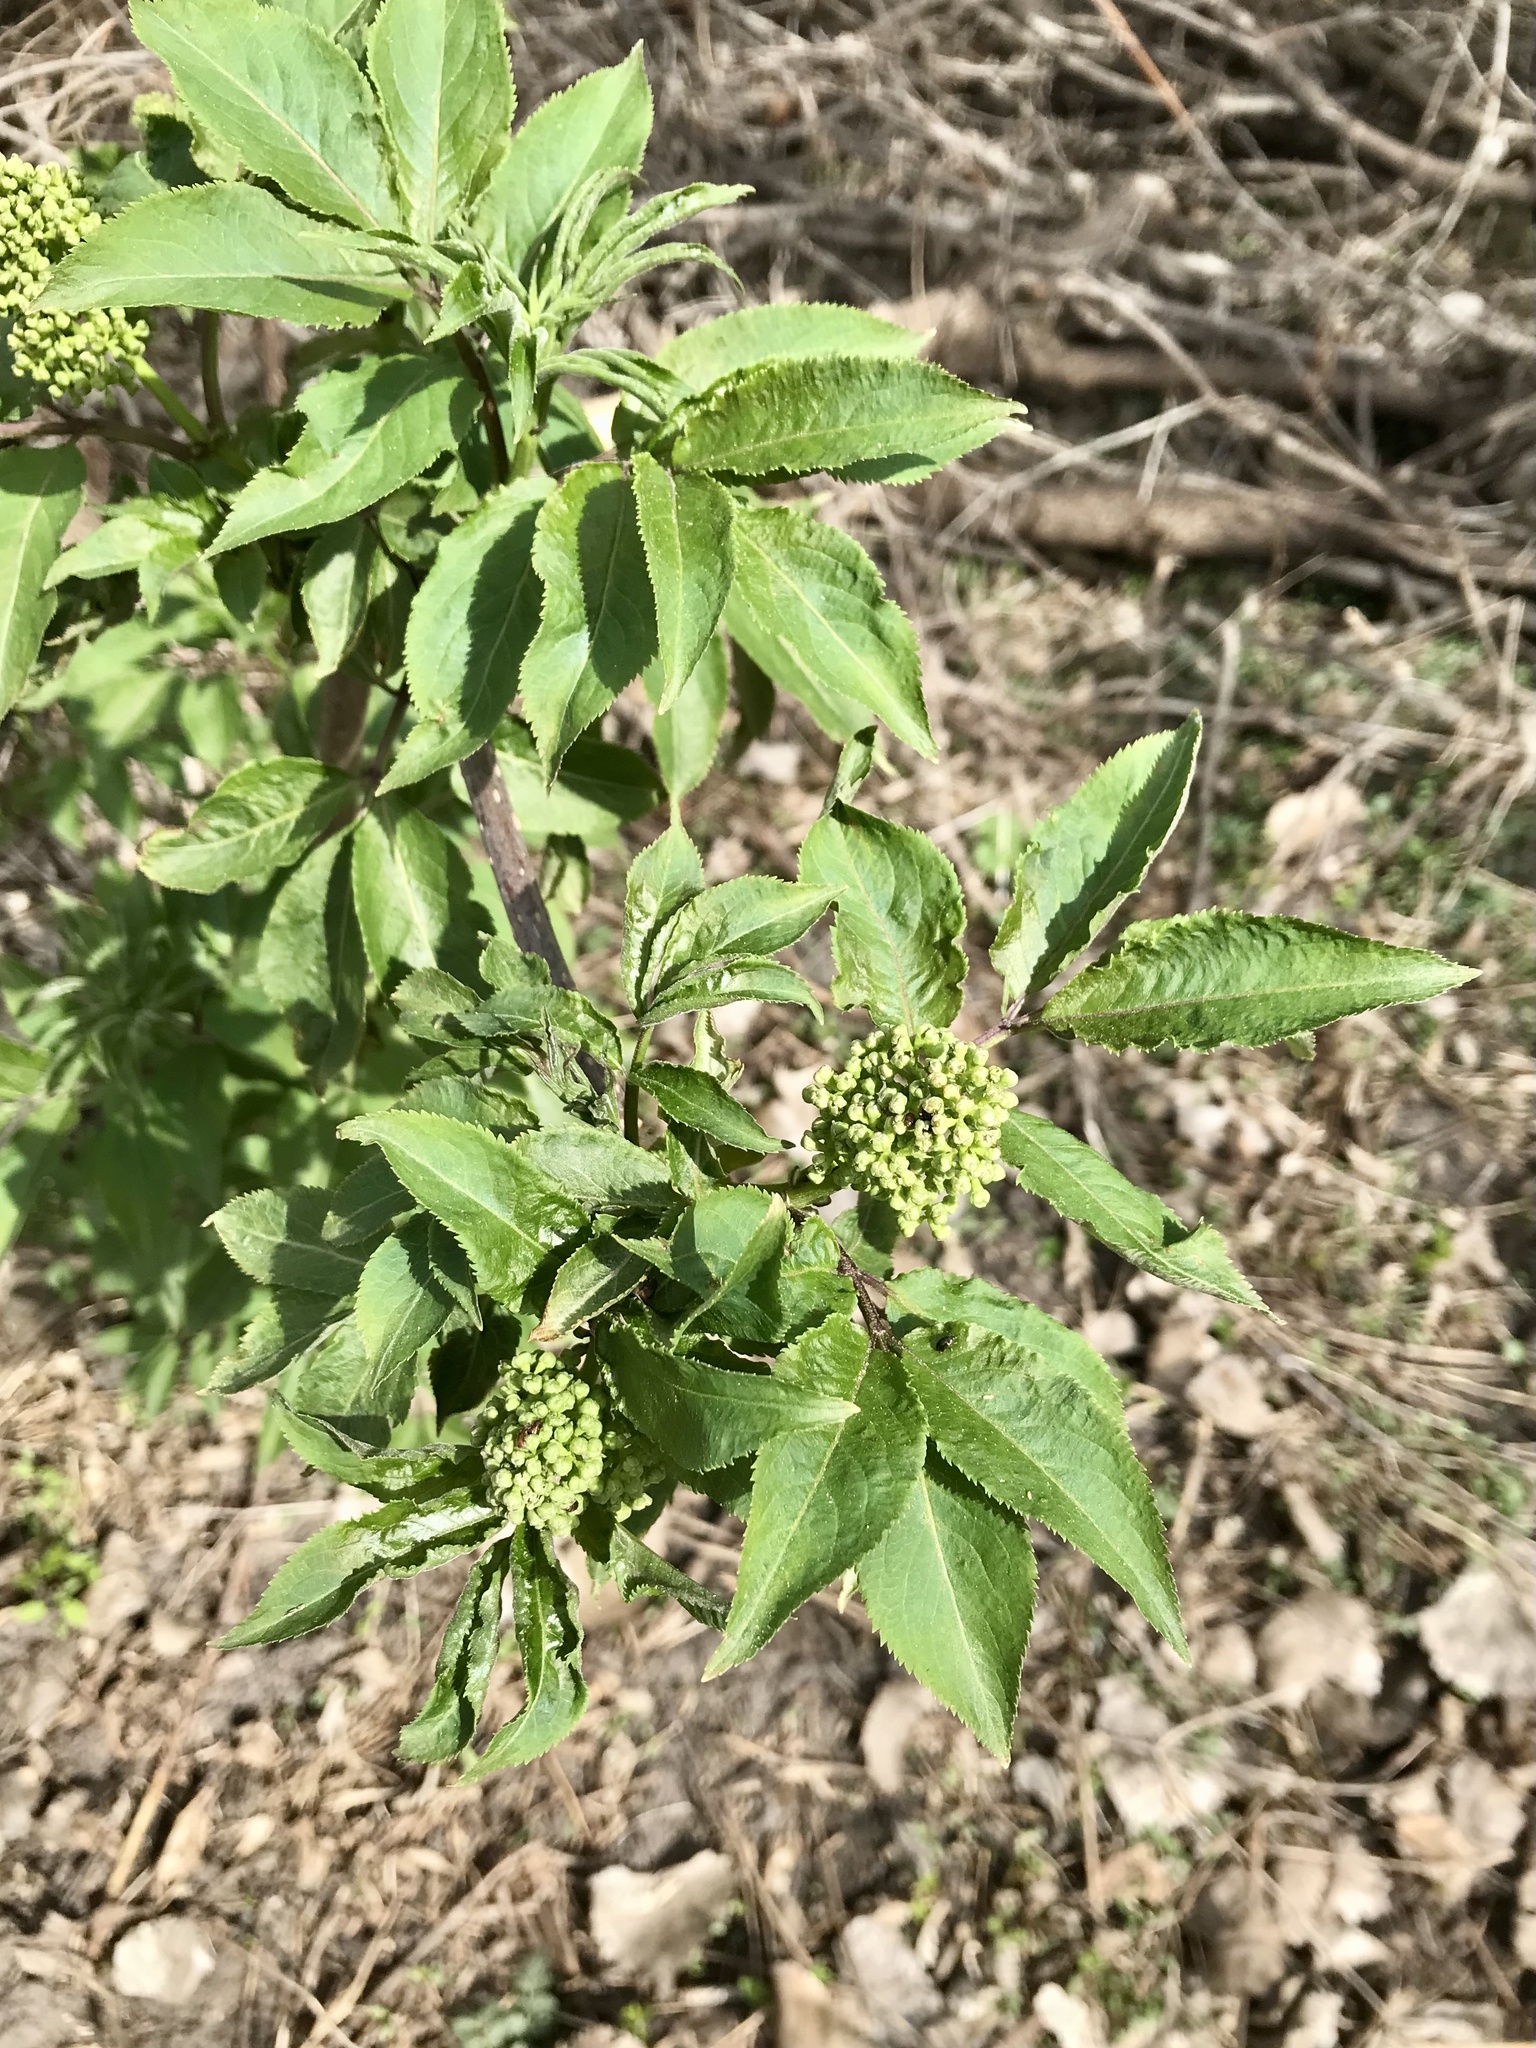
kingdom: Plantae
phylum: Tracheophyta
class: Magnoliopsida
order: Dipsacales
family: Viburnaceae
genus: Sambucus
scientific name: Sambucus racemosa
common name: Red-berried elder
